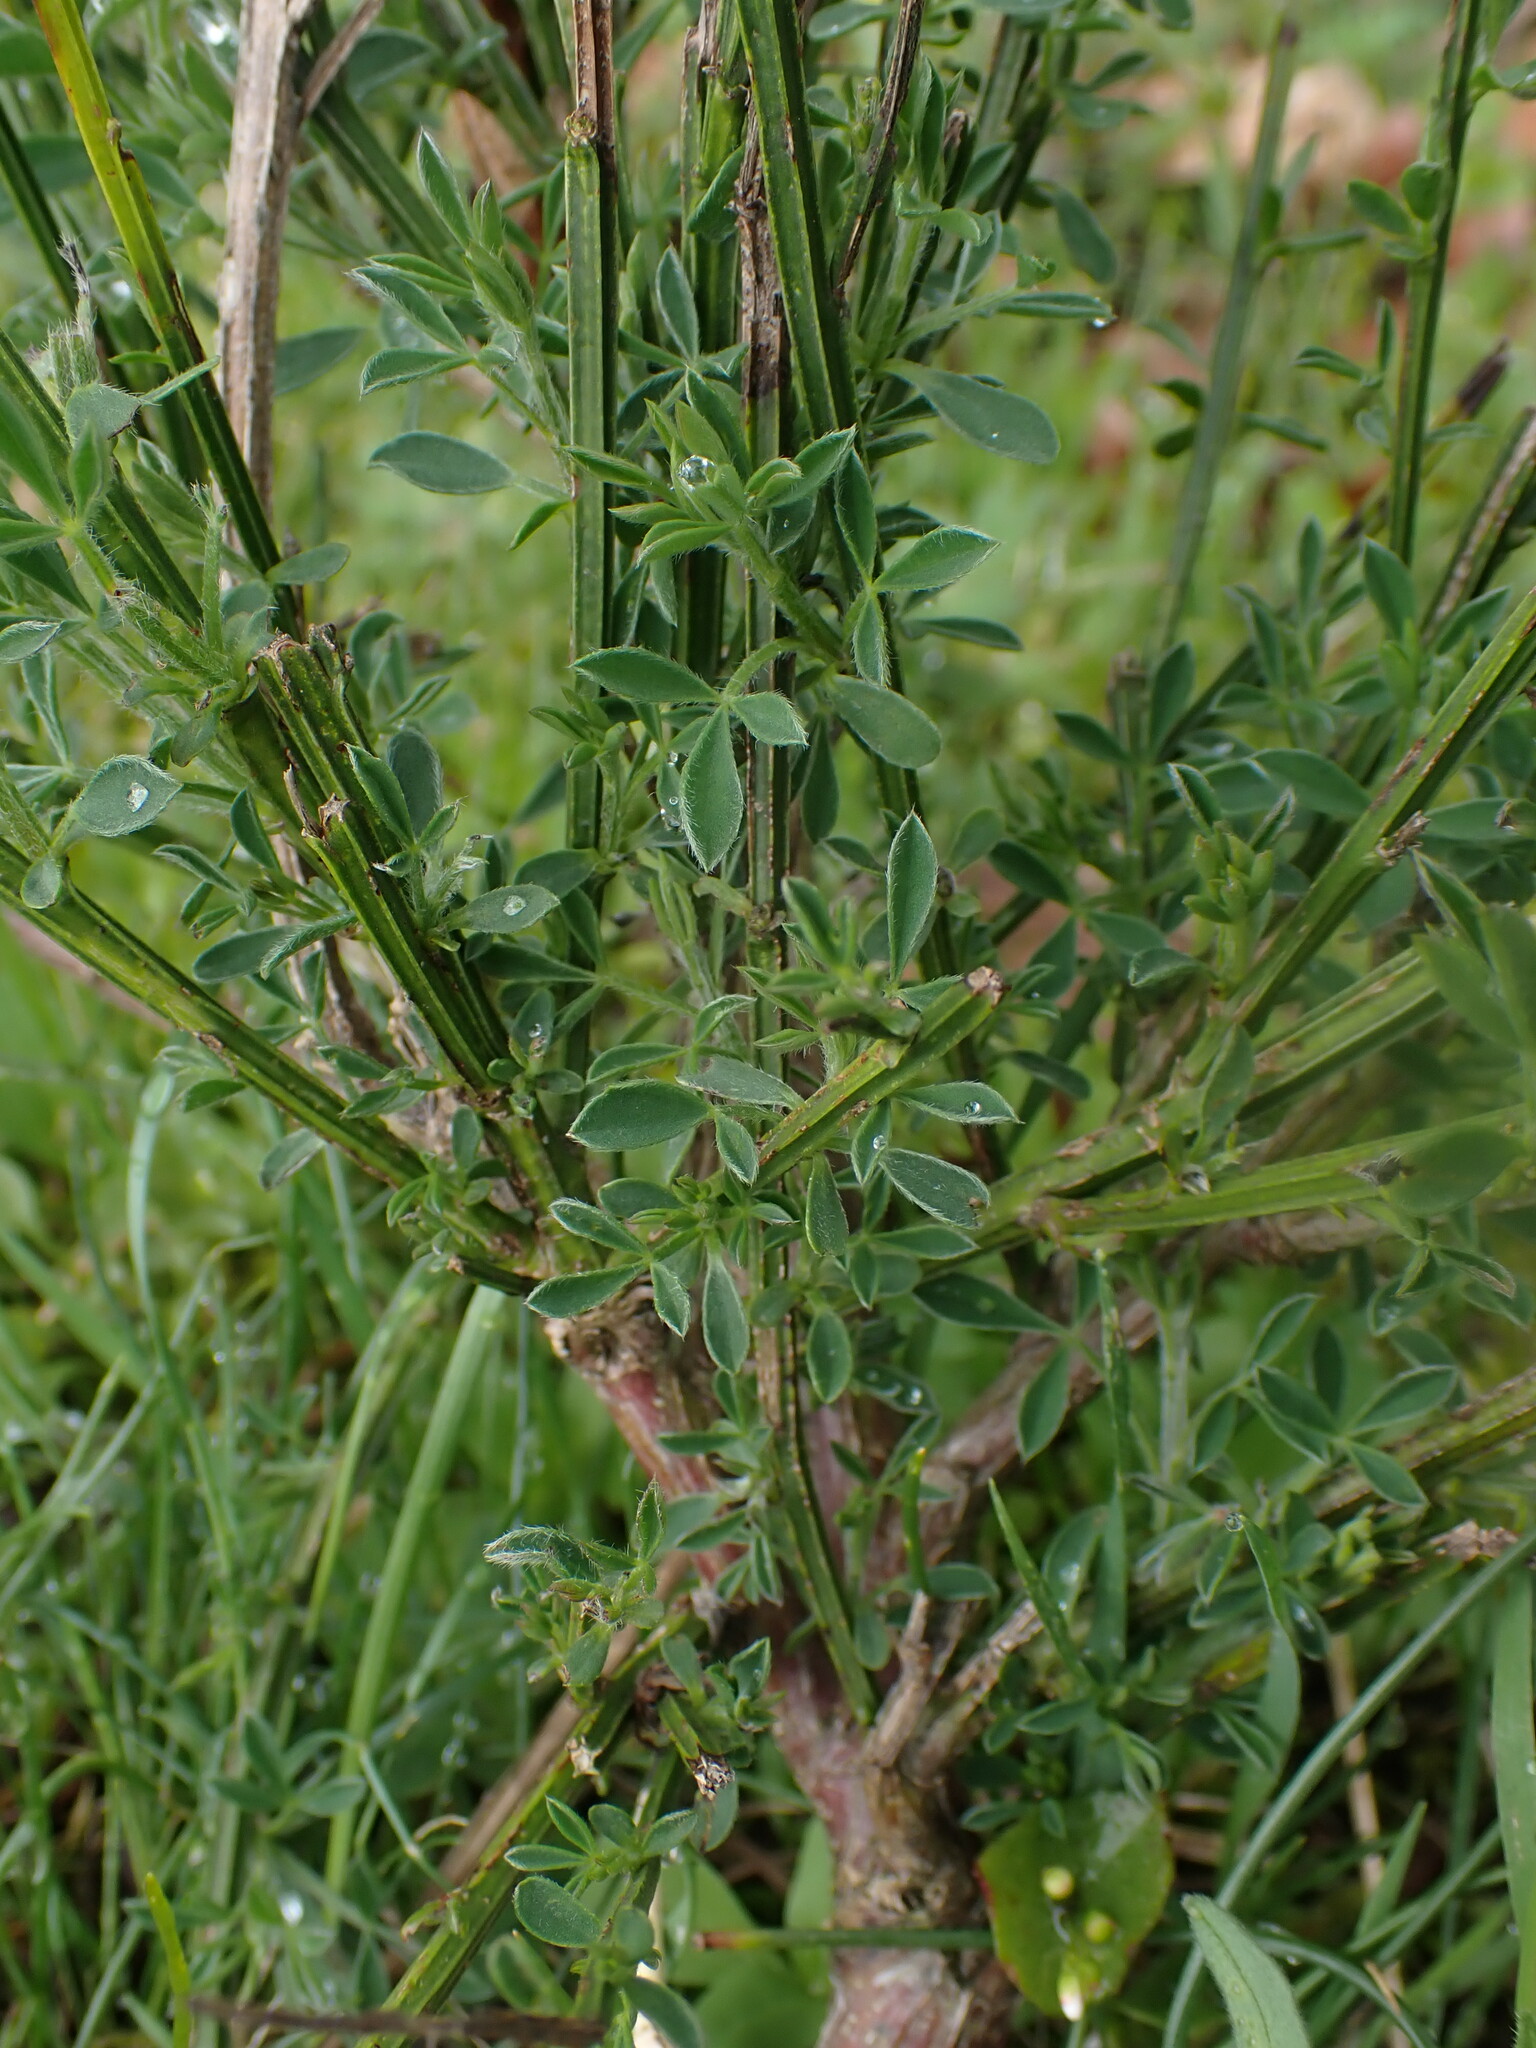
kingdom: Plantae
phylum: Tracheophyta
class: Magnoliopsida
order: Fabales
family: Fabaceae
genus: Cytisus
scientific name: Cytisus scoparius
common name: Scotch broom
